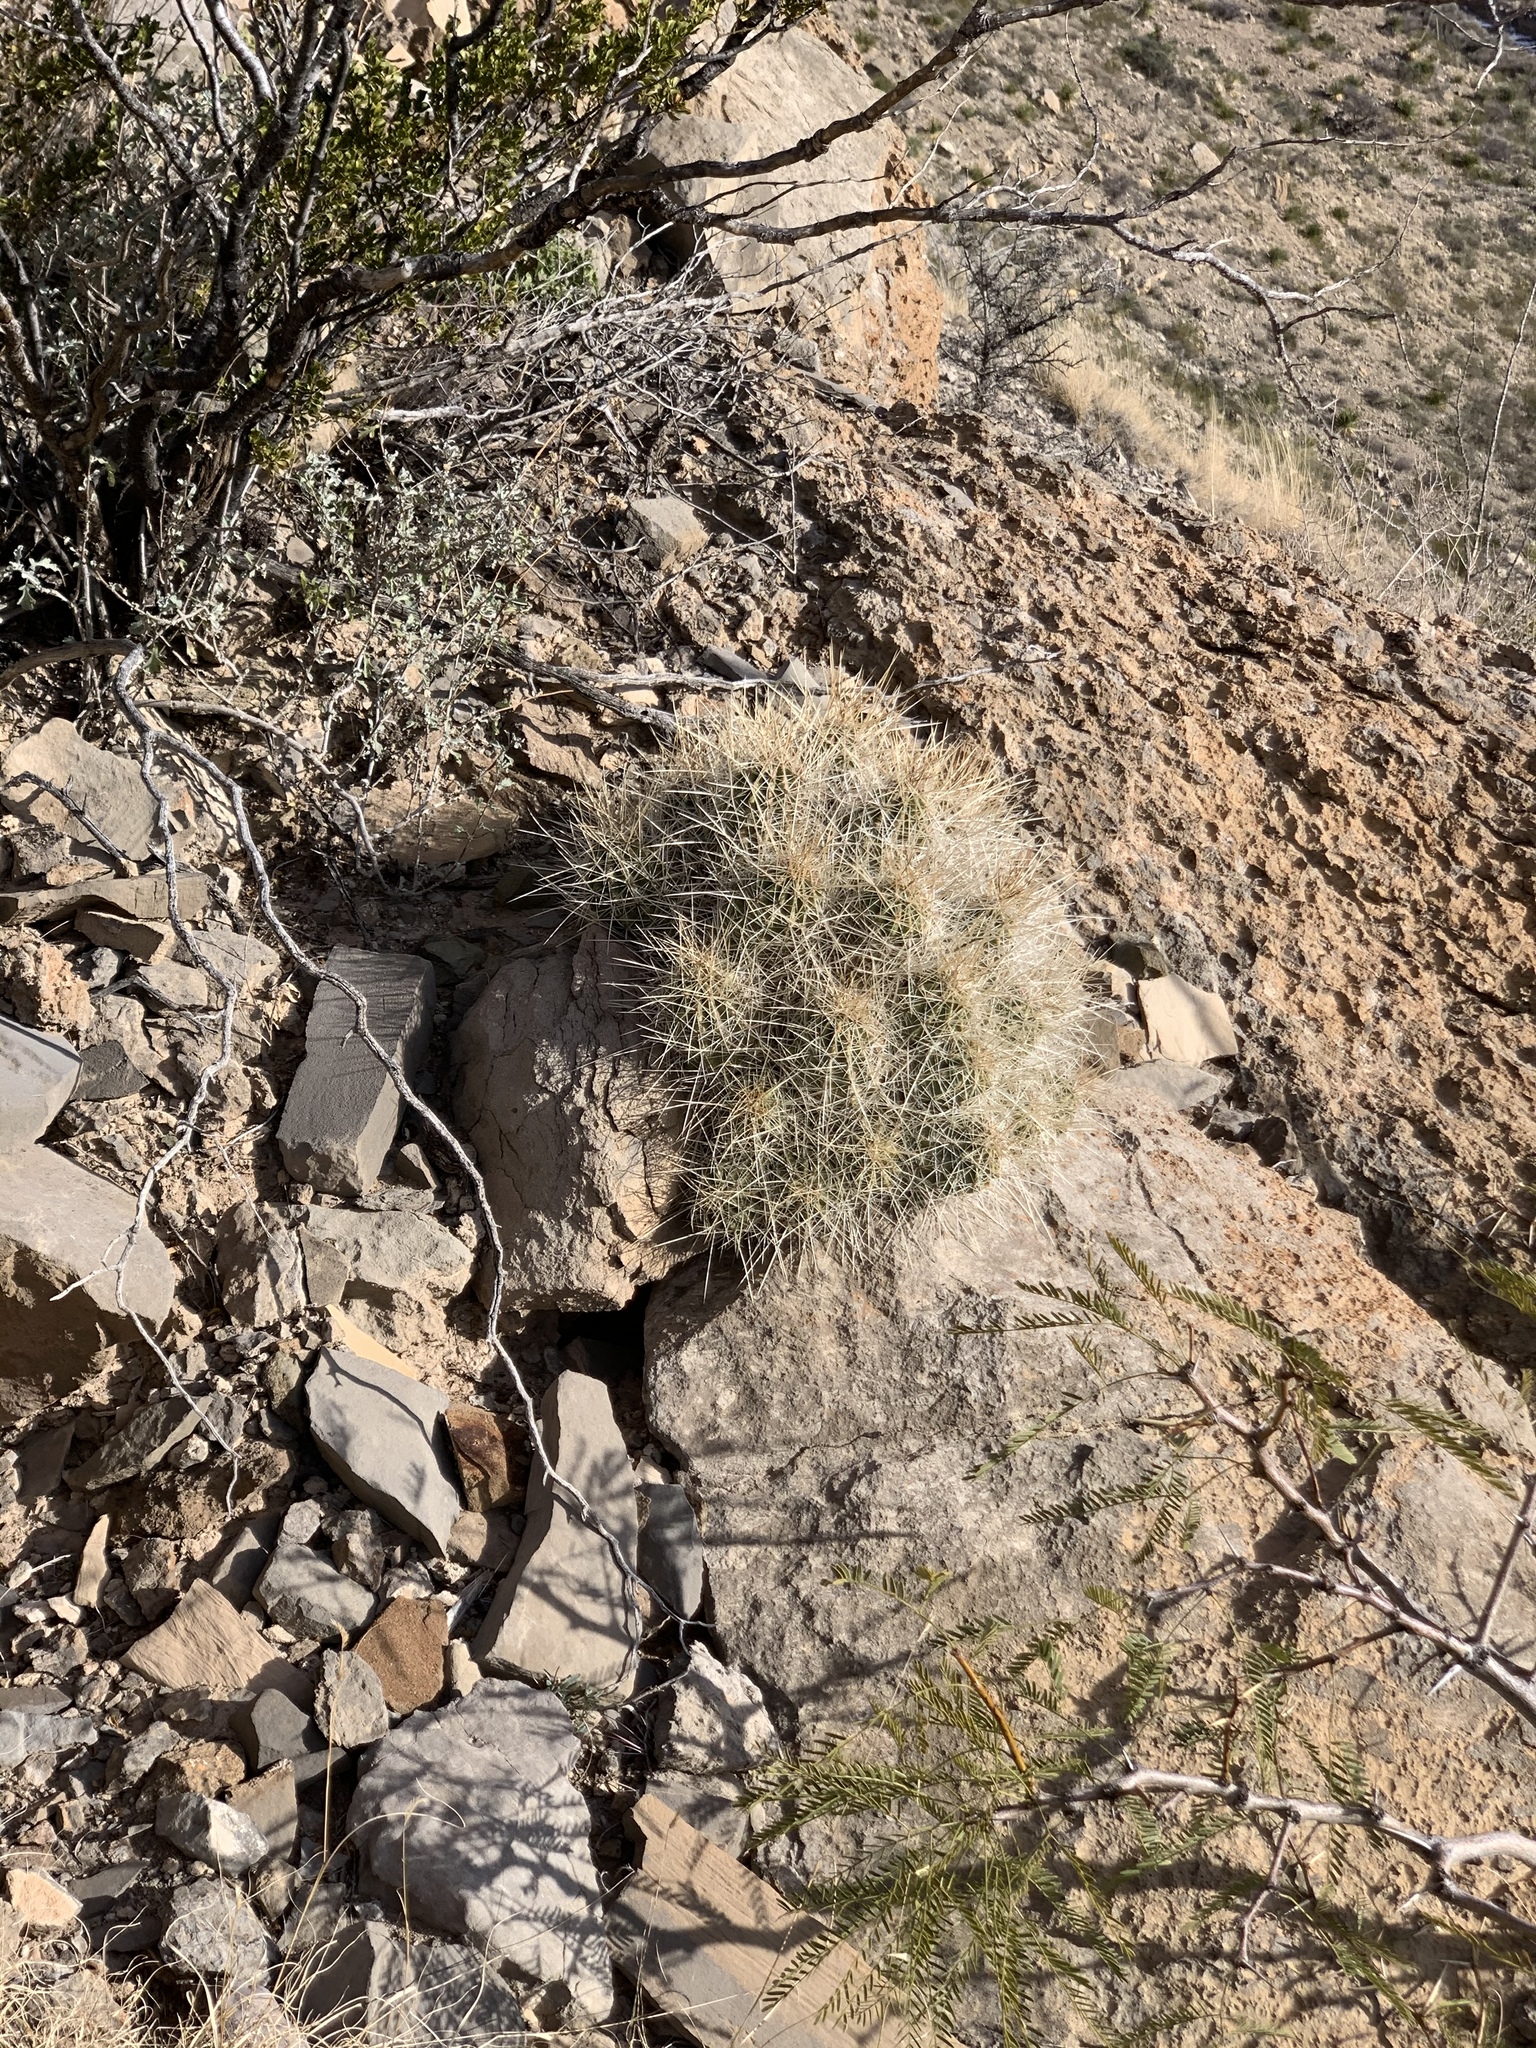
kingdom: Plantae
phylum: Tracheophyta
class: Magnoliopsida
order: Caryophyllales
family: Cactaceae
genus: Echinocereus
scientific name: Echinocereus stramineus
